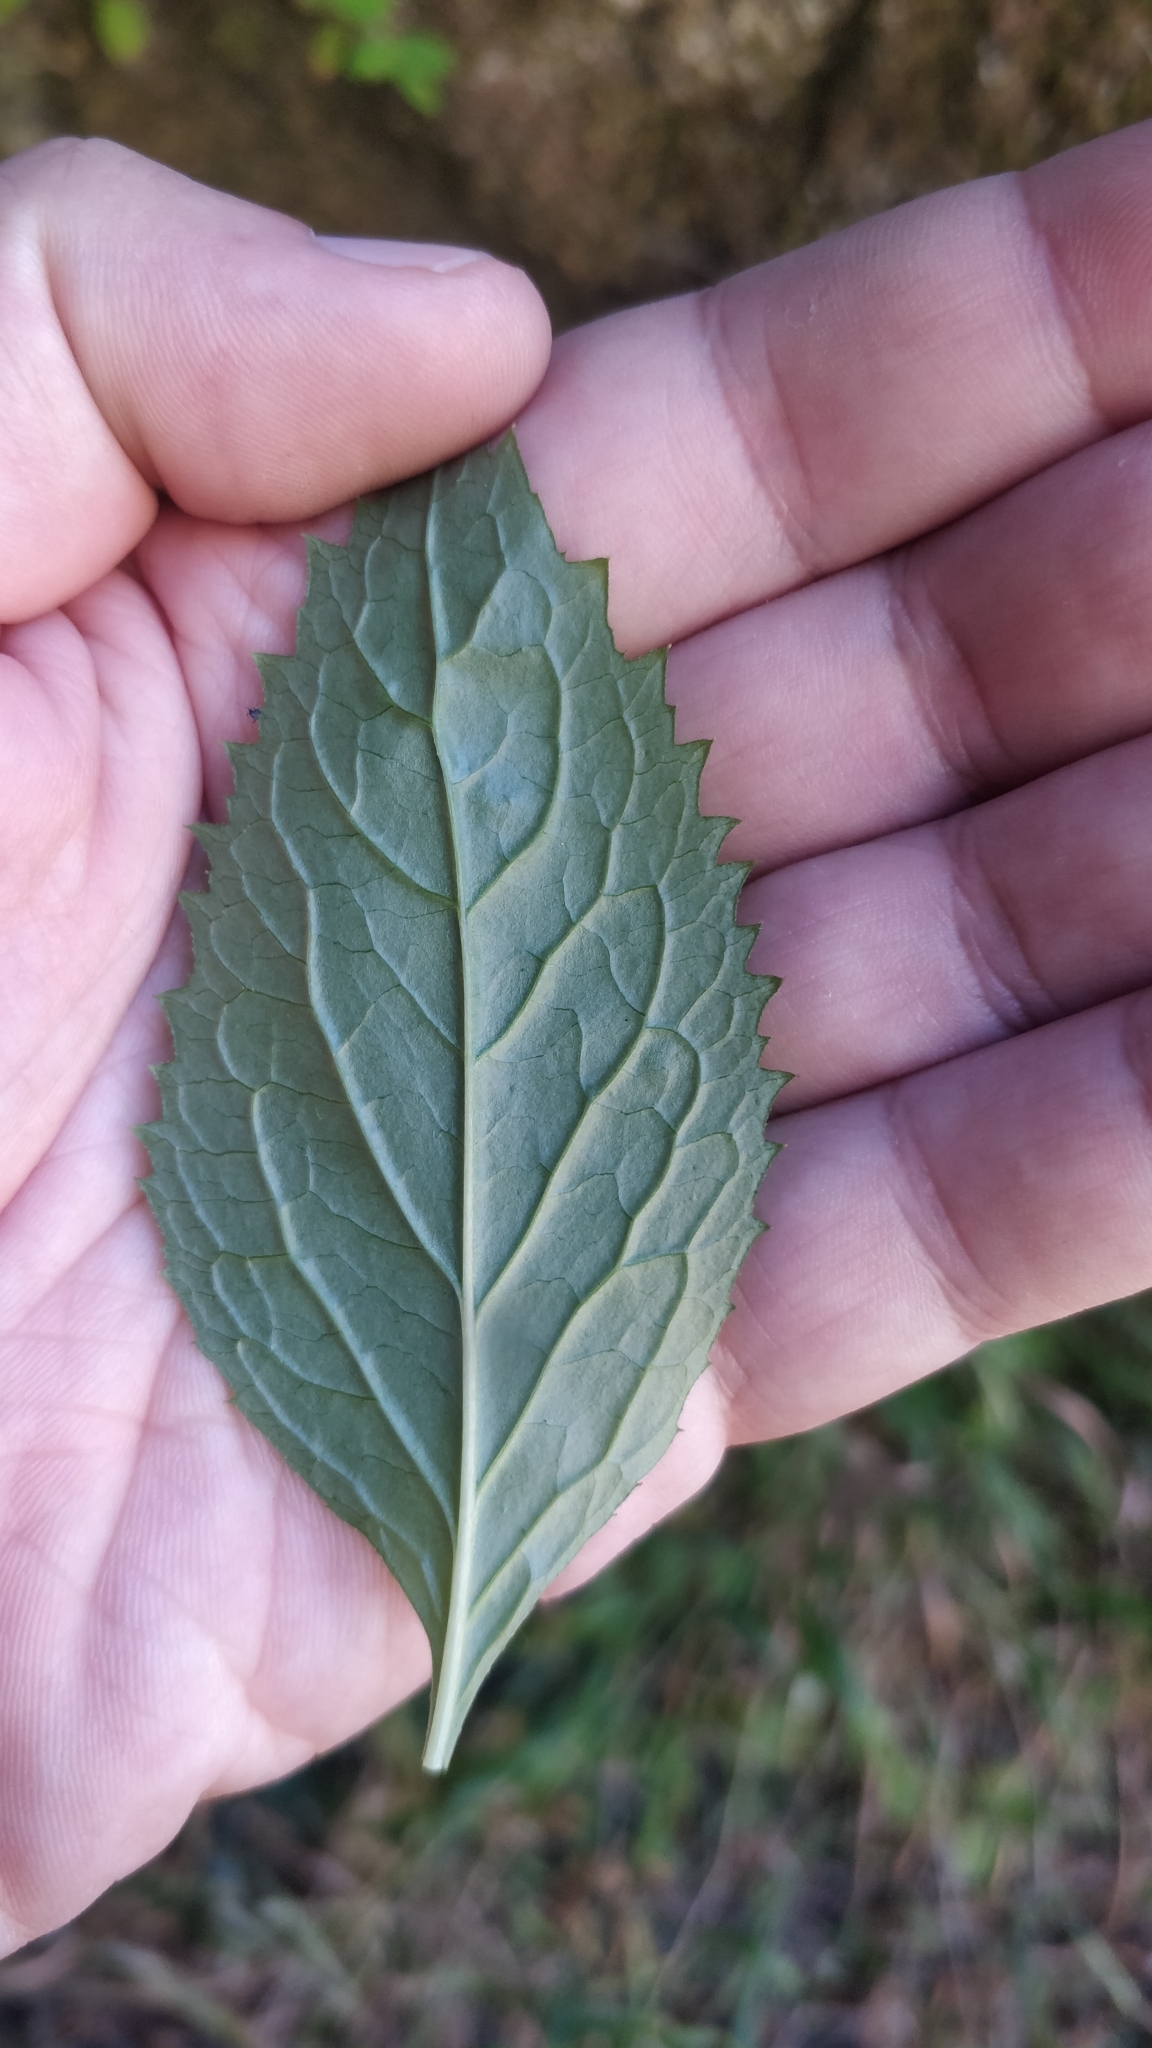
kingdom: Plantae
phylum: Tracheophyta
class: Magnoliopsida
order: Asterales
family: Campanulaceae
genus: Trachelium
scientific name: Trachelium caeruleum
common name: Throatwort
